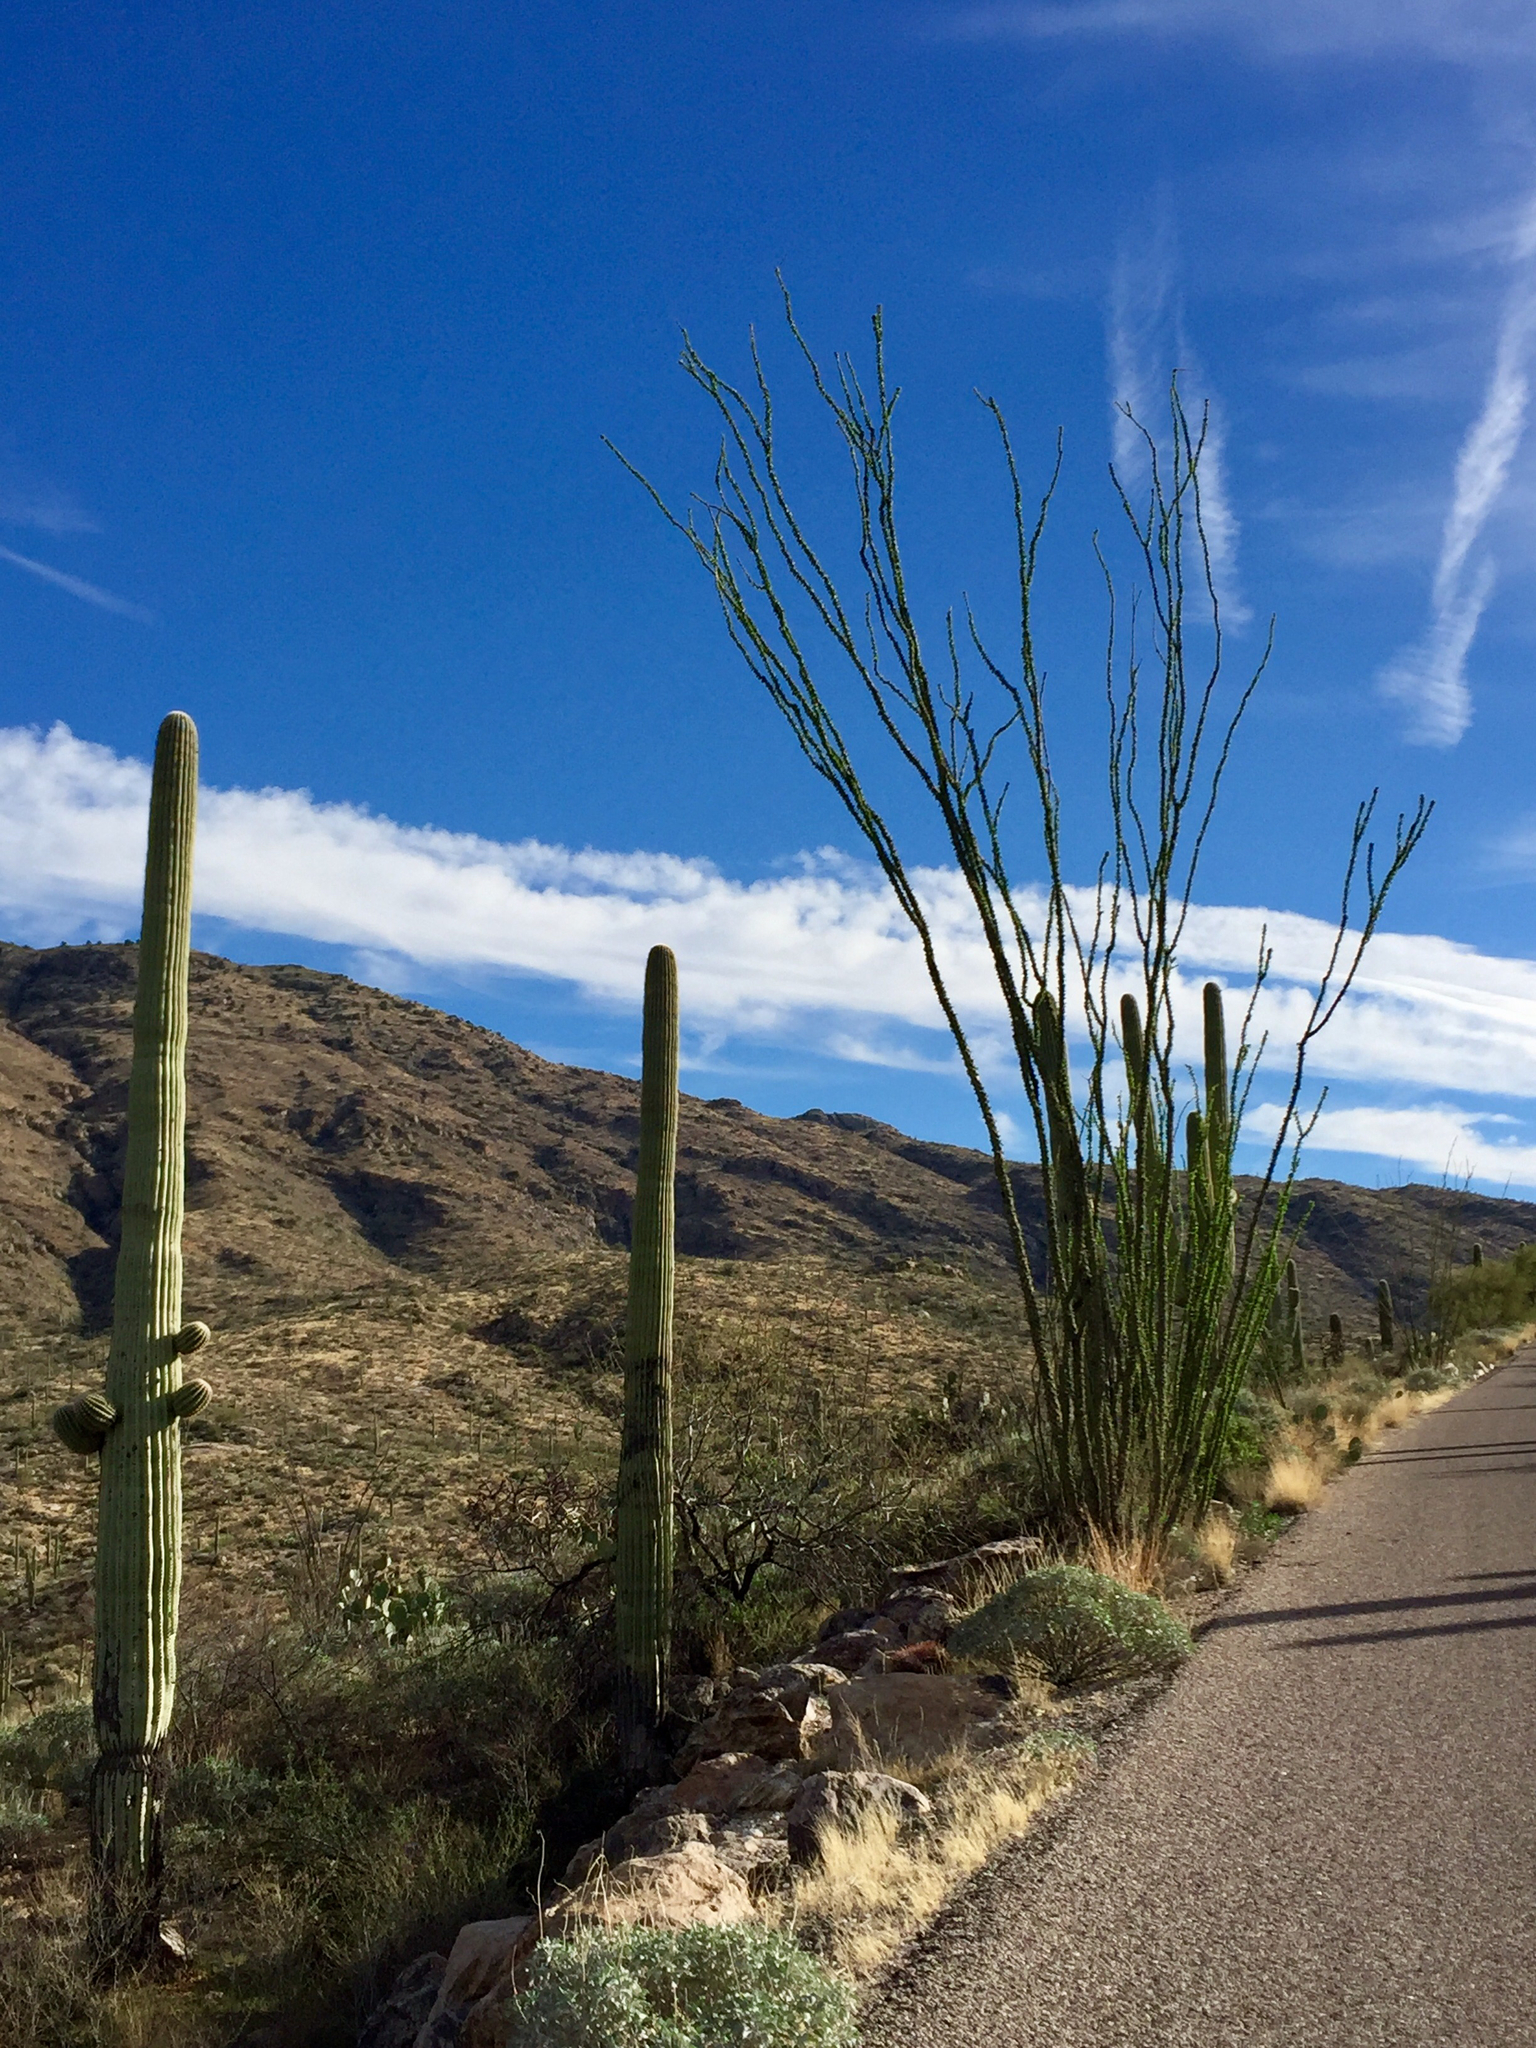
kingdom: Plantae
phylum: Tracheophyta
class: Magnoliopsida
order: Ericales
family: Fouquieriaceae
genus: Fouquieria
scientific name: Fouquieria splendens
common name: Vine-cactus
